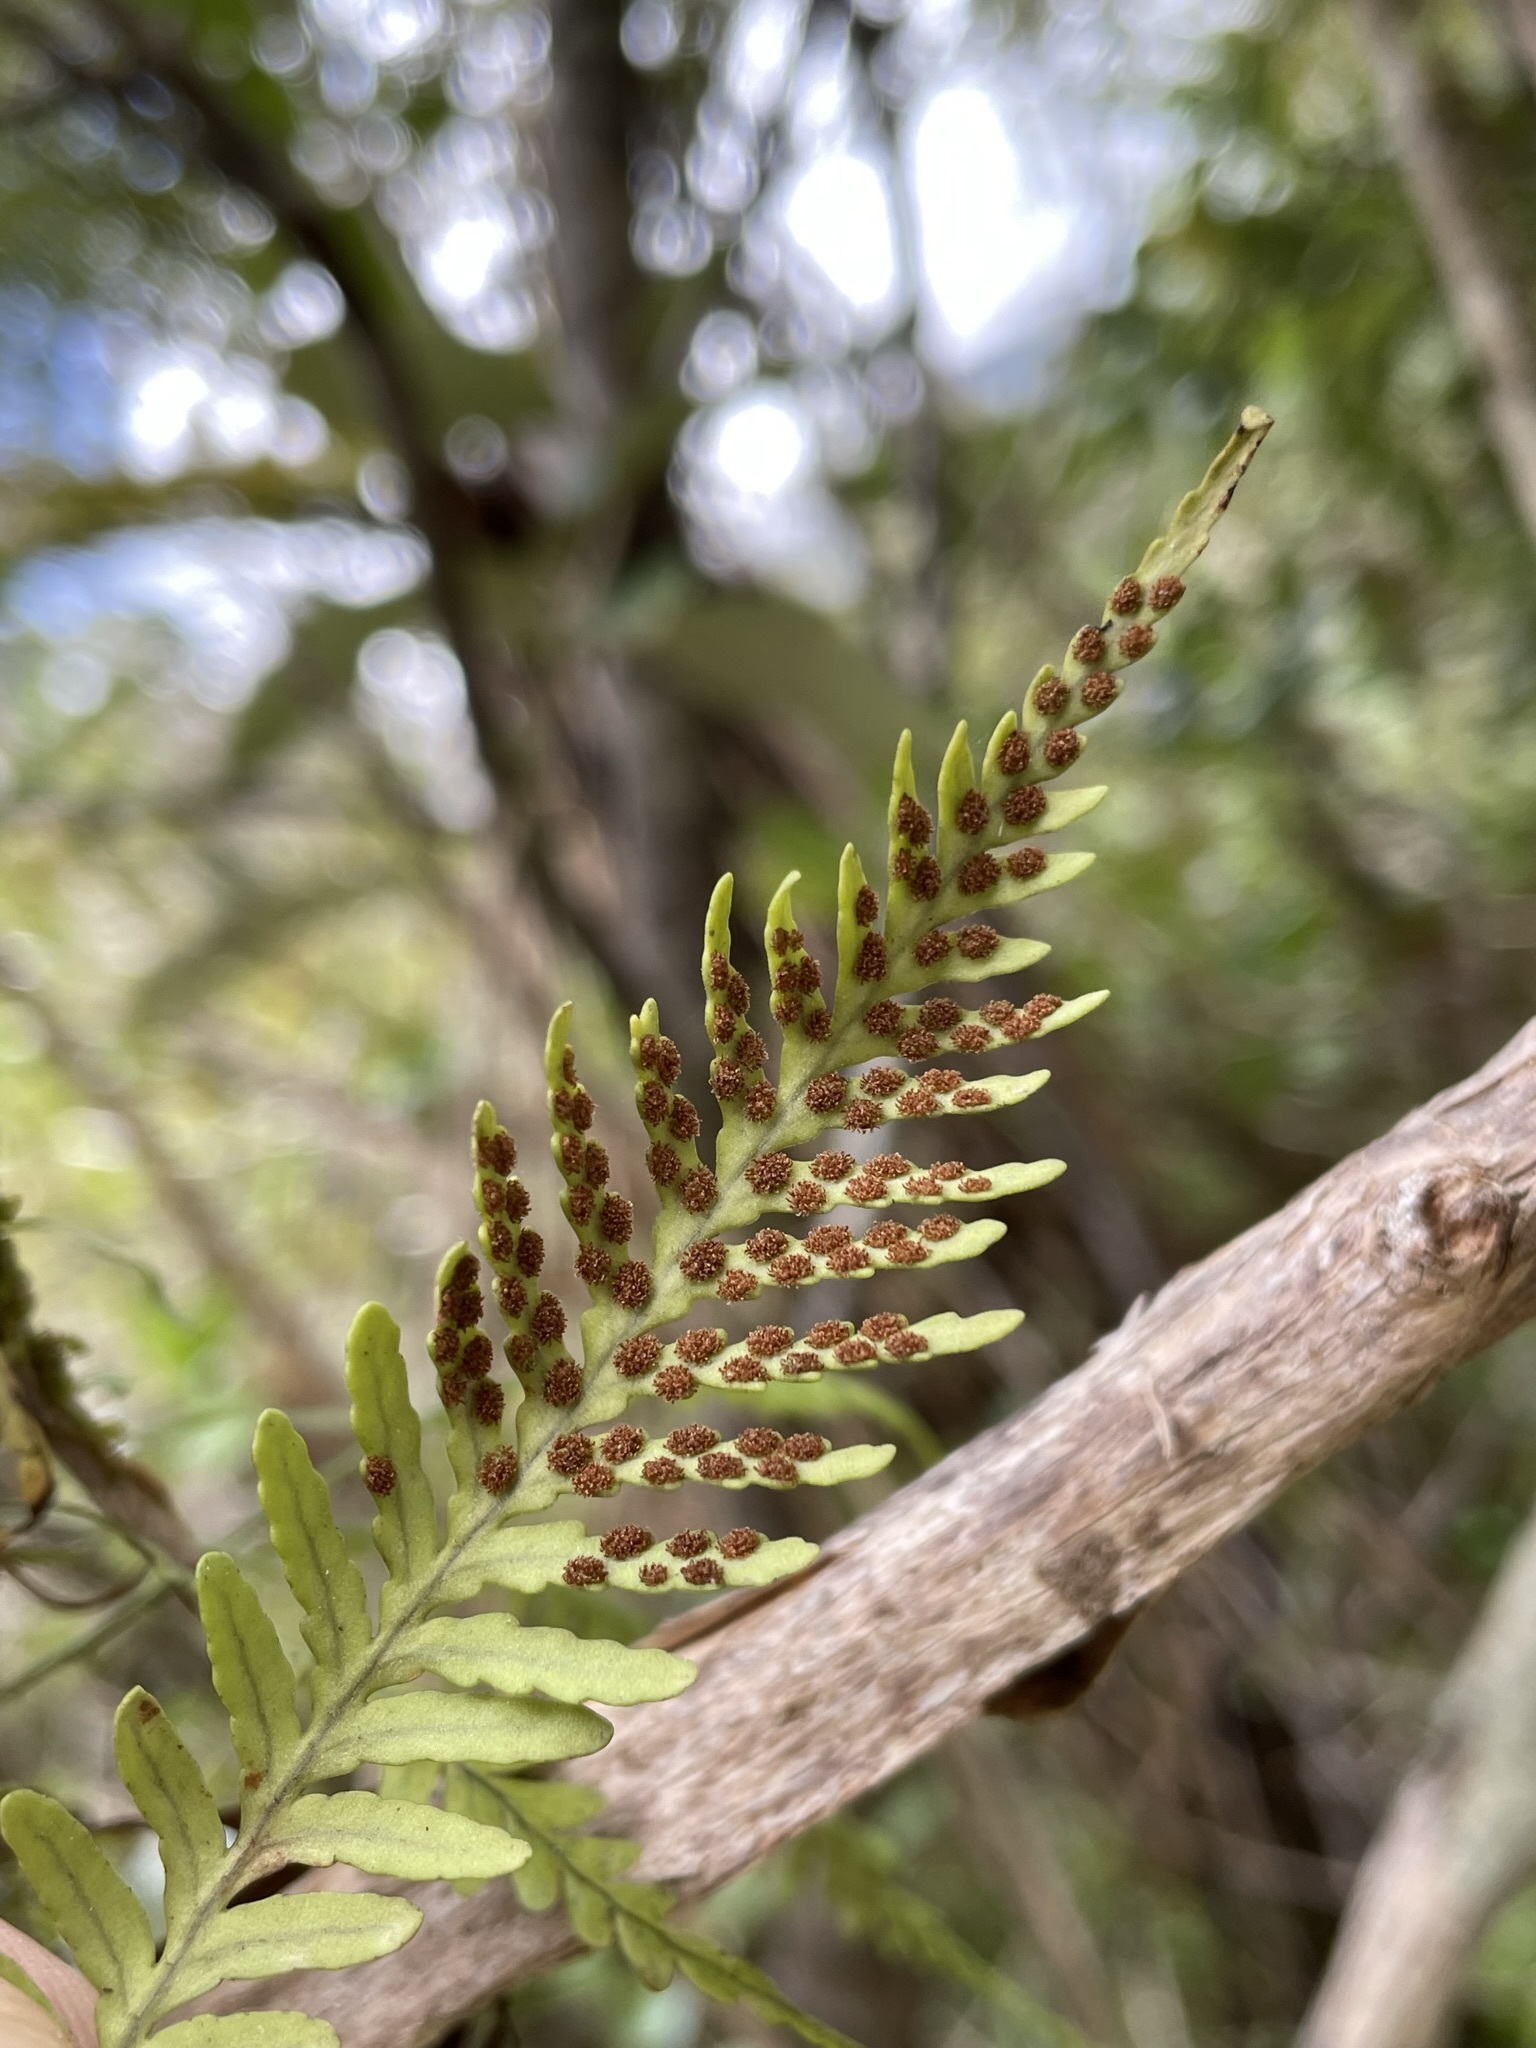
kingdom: Plantae
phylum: Tracheophyta
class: Polypodiopsida
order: Polypodiales
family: Polypodiaceae
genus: Notogrammitis
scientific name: Notogrammitis heterophylla
